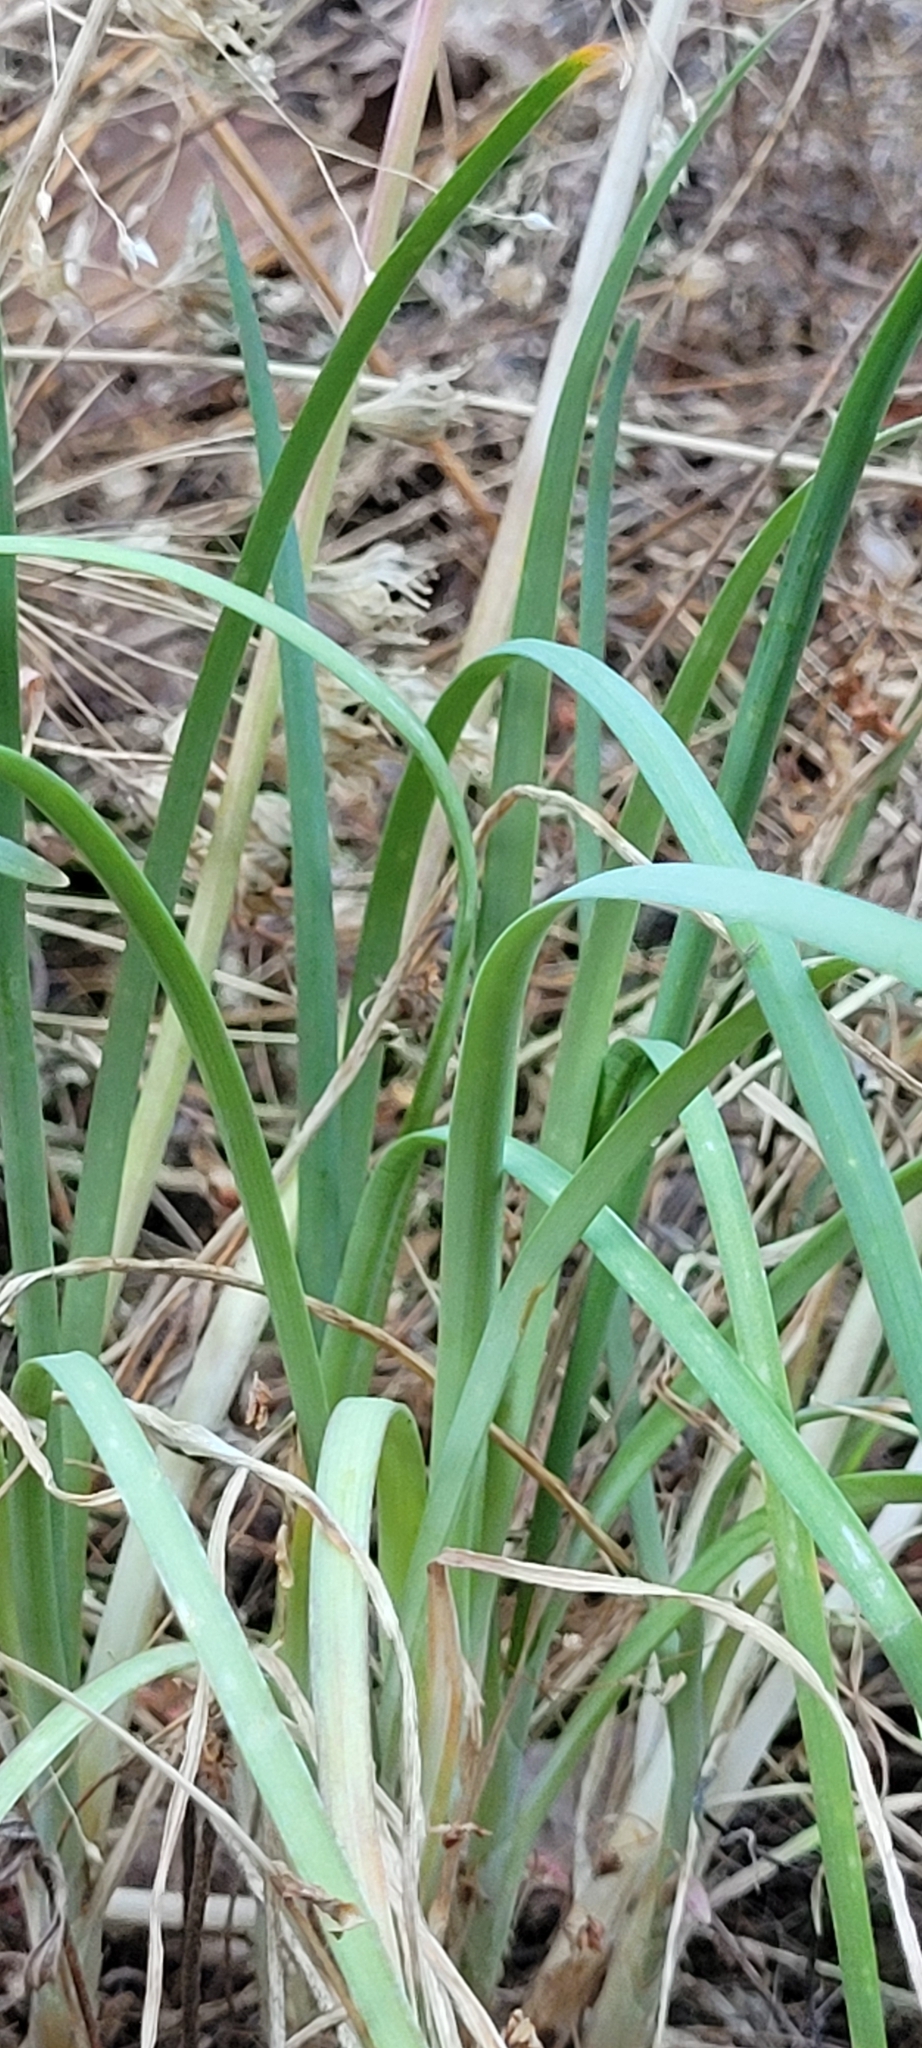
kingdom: Plantae
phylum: Tracheophyta
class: Liliopsida
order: Asparagales
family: Amaryllidaceae
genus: Allium
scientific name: Allium cernuum
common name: Nodding onion
